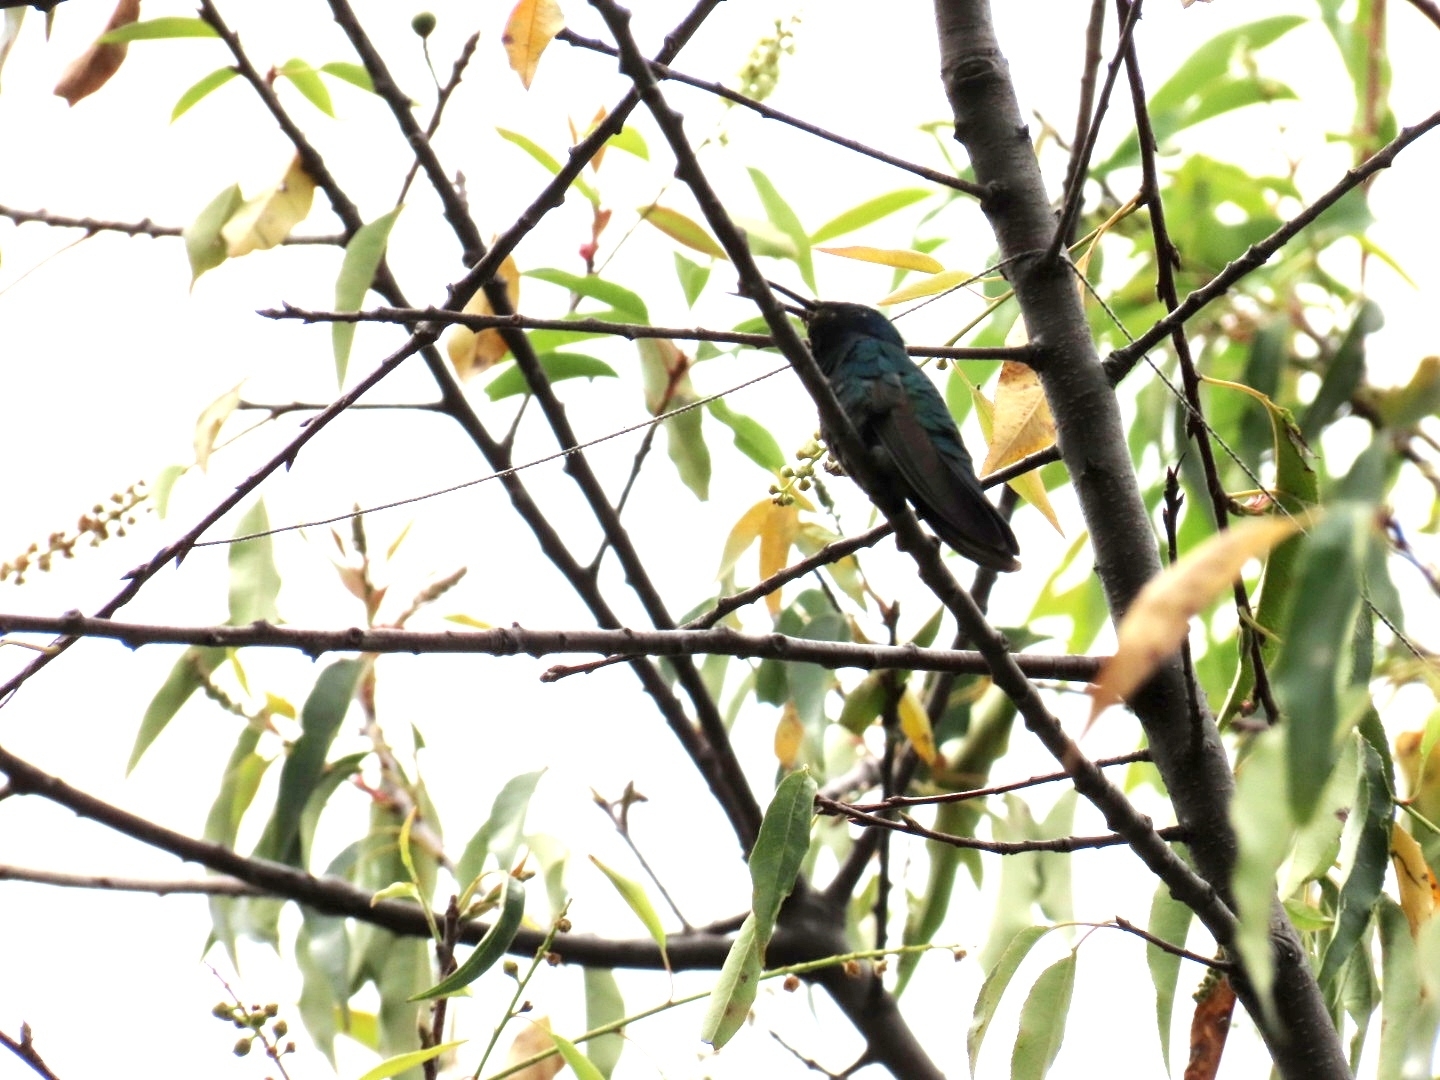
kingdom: Animalia
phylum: Chordata
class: Aves
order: Apodiformes
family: Trochilidae
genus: Heliangelus
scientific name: Heliangelus viola
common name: Purple-throated sunangel
